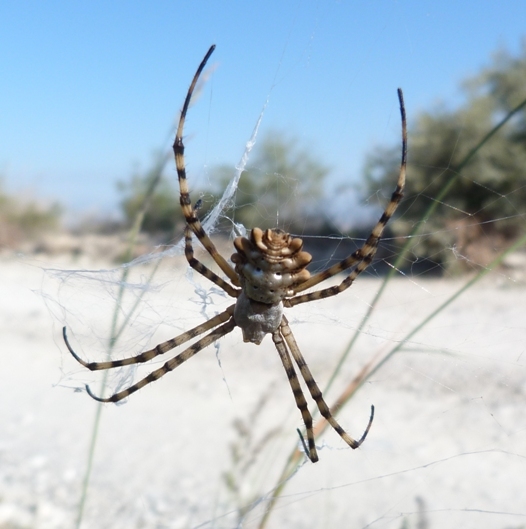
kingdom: Animalia
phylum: Arthropoda
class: Arachnida
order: Araneae
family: Araneidae
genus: Argiope
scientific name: Argiope lobata
